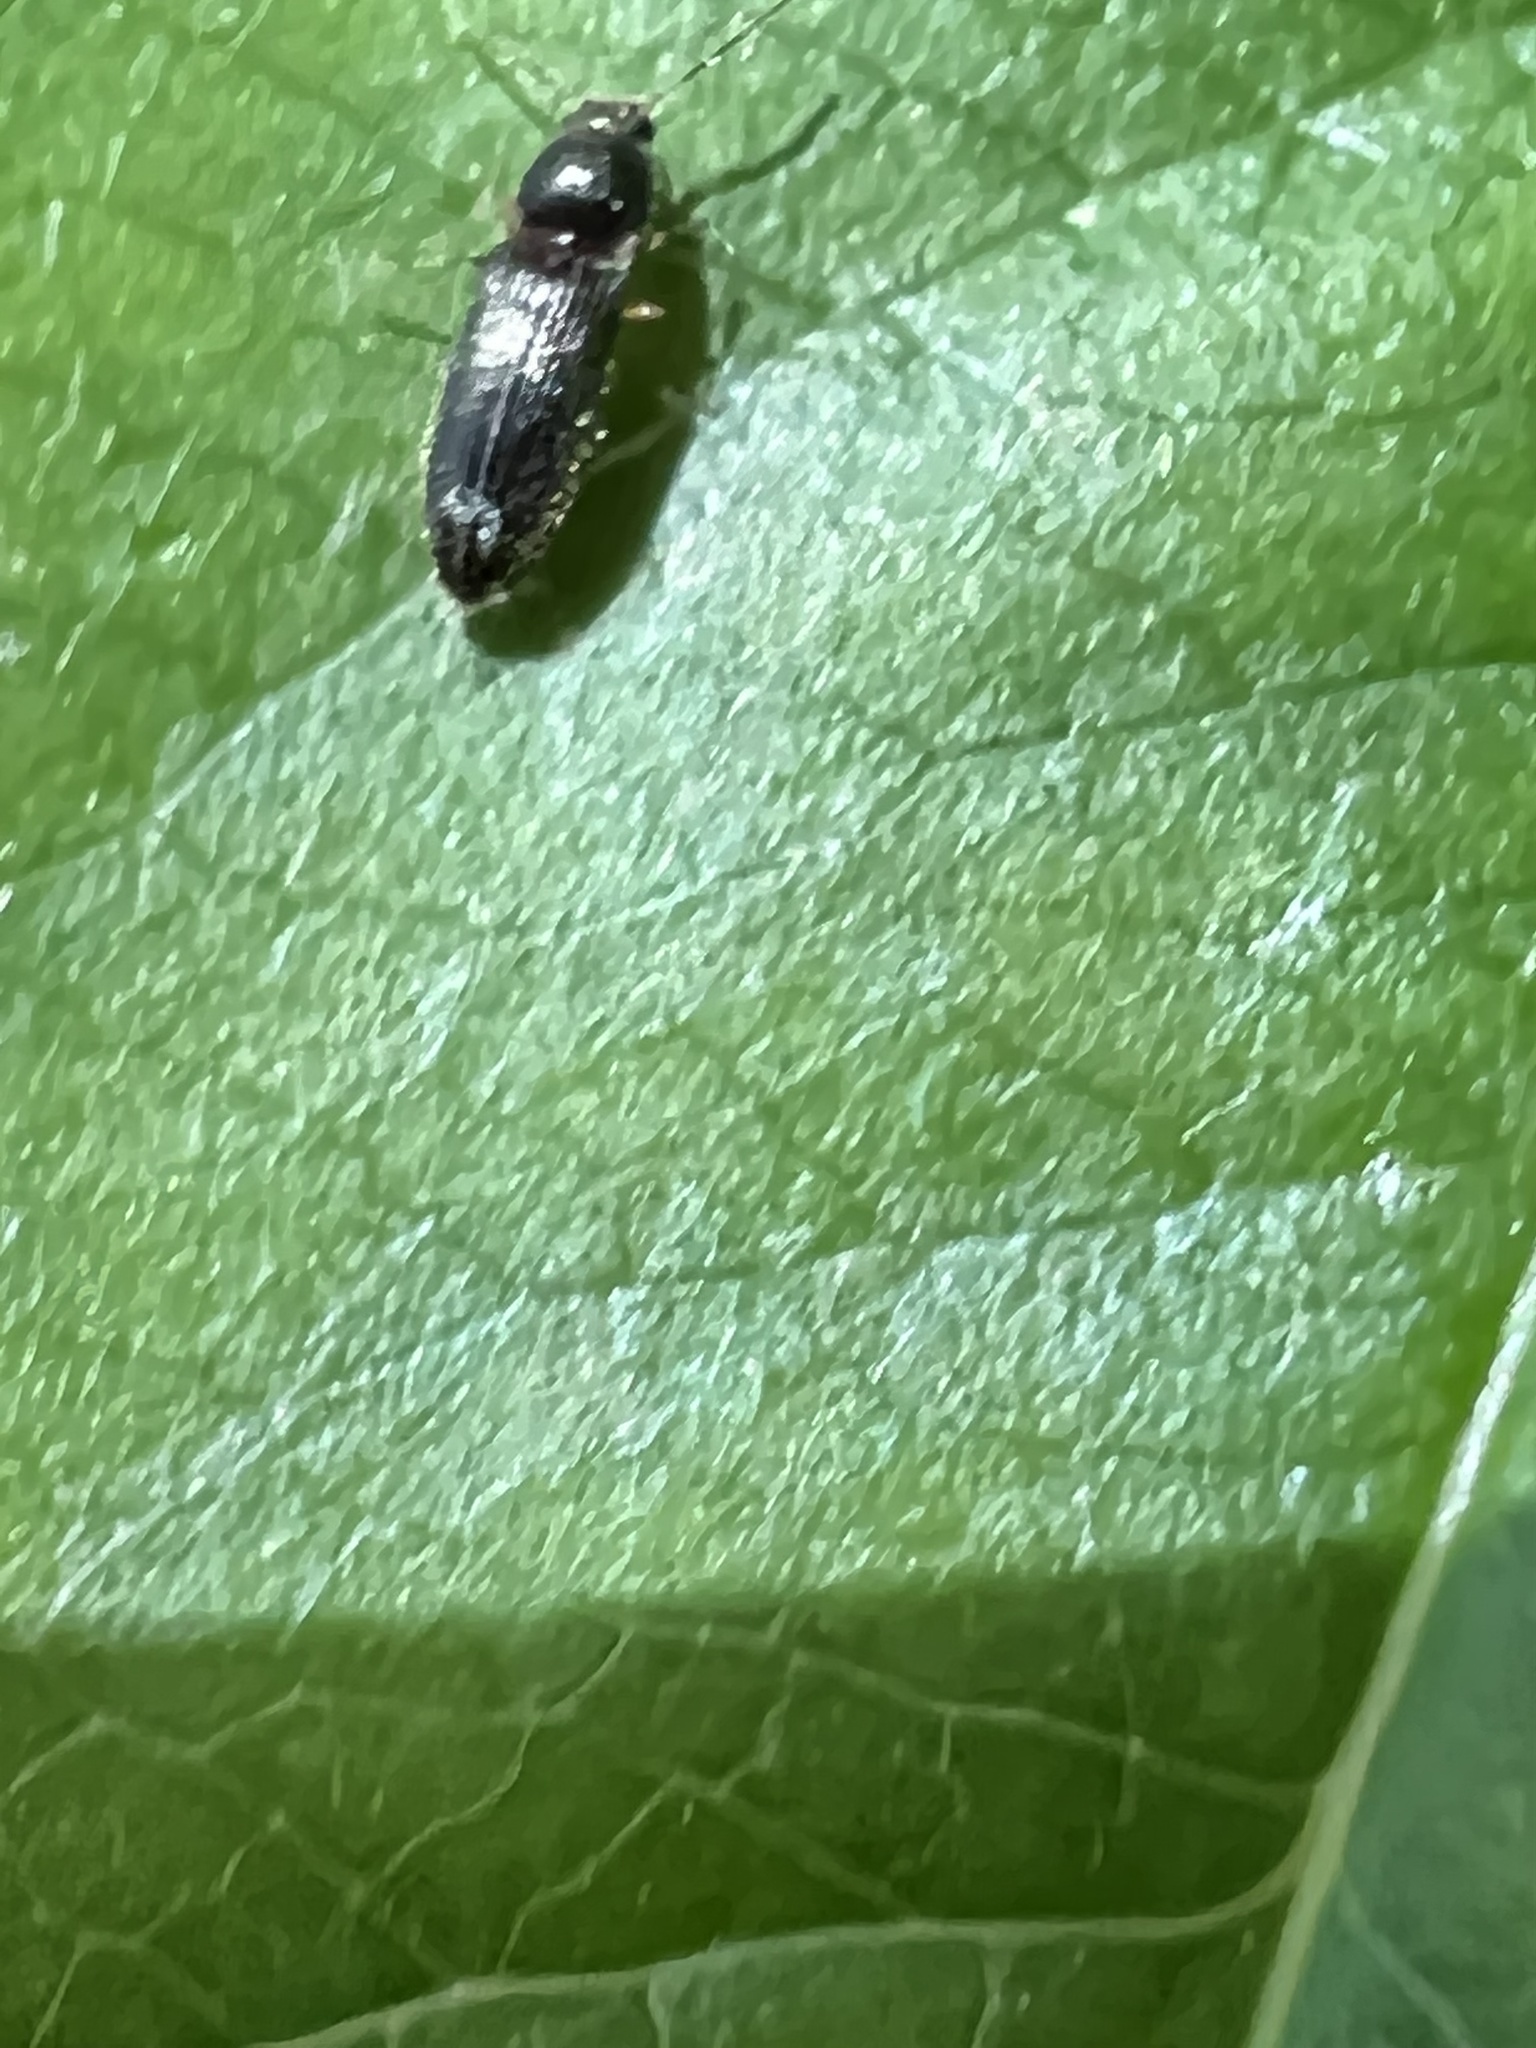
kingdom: Animalia
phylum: Arthropoda
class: Insecta
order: Coleoptera
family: Elateridae
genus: Tetralimonius
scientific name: Tetralimonius
